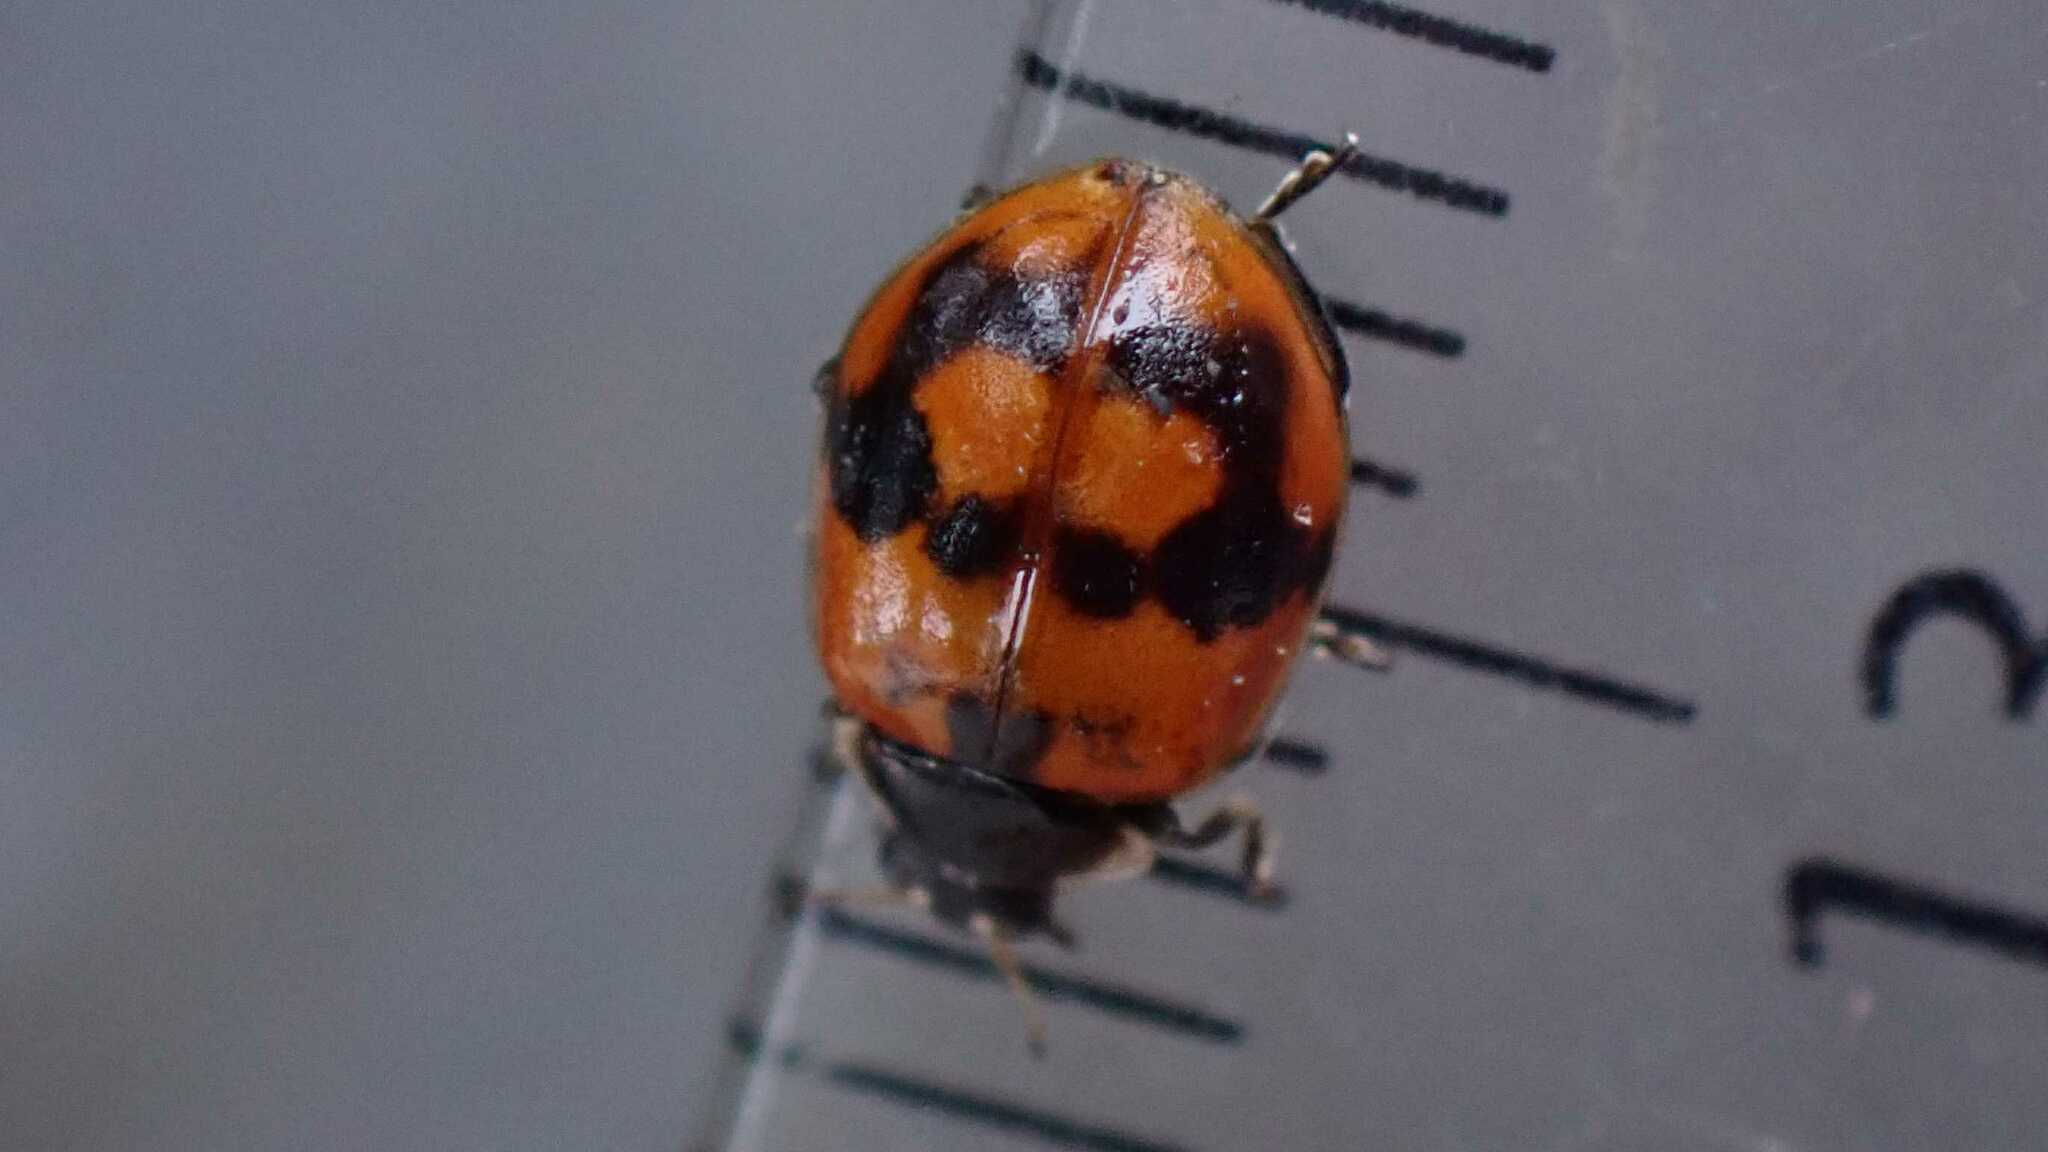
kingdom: Animalia
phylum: Arthropoda
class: Insecta
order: Coleoptera
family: Coccinellidae
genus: Adalia
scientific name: Adalia bipunctata
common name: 2-spot ladybird
